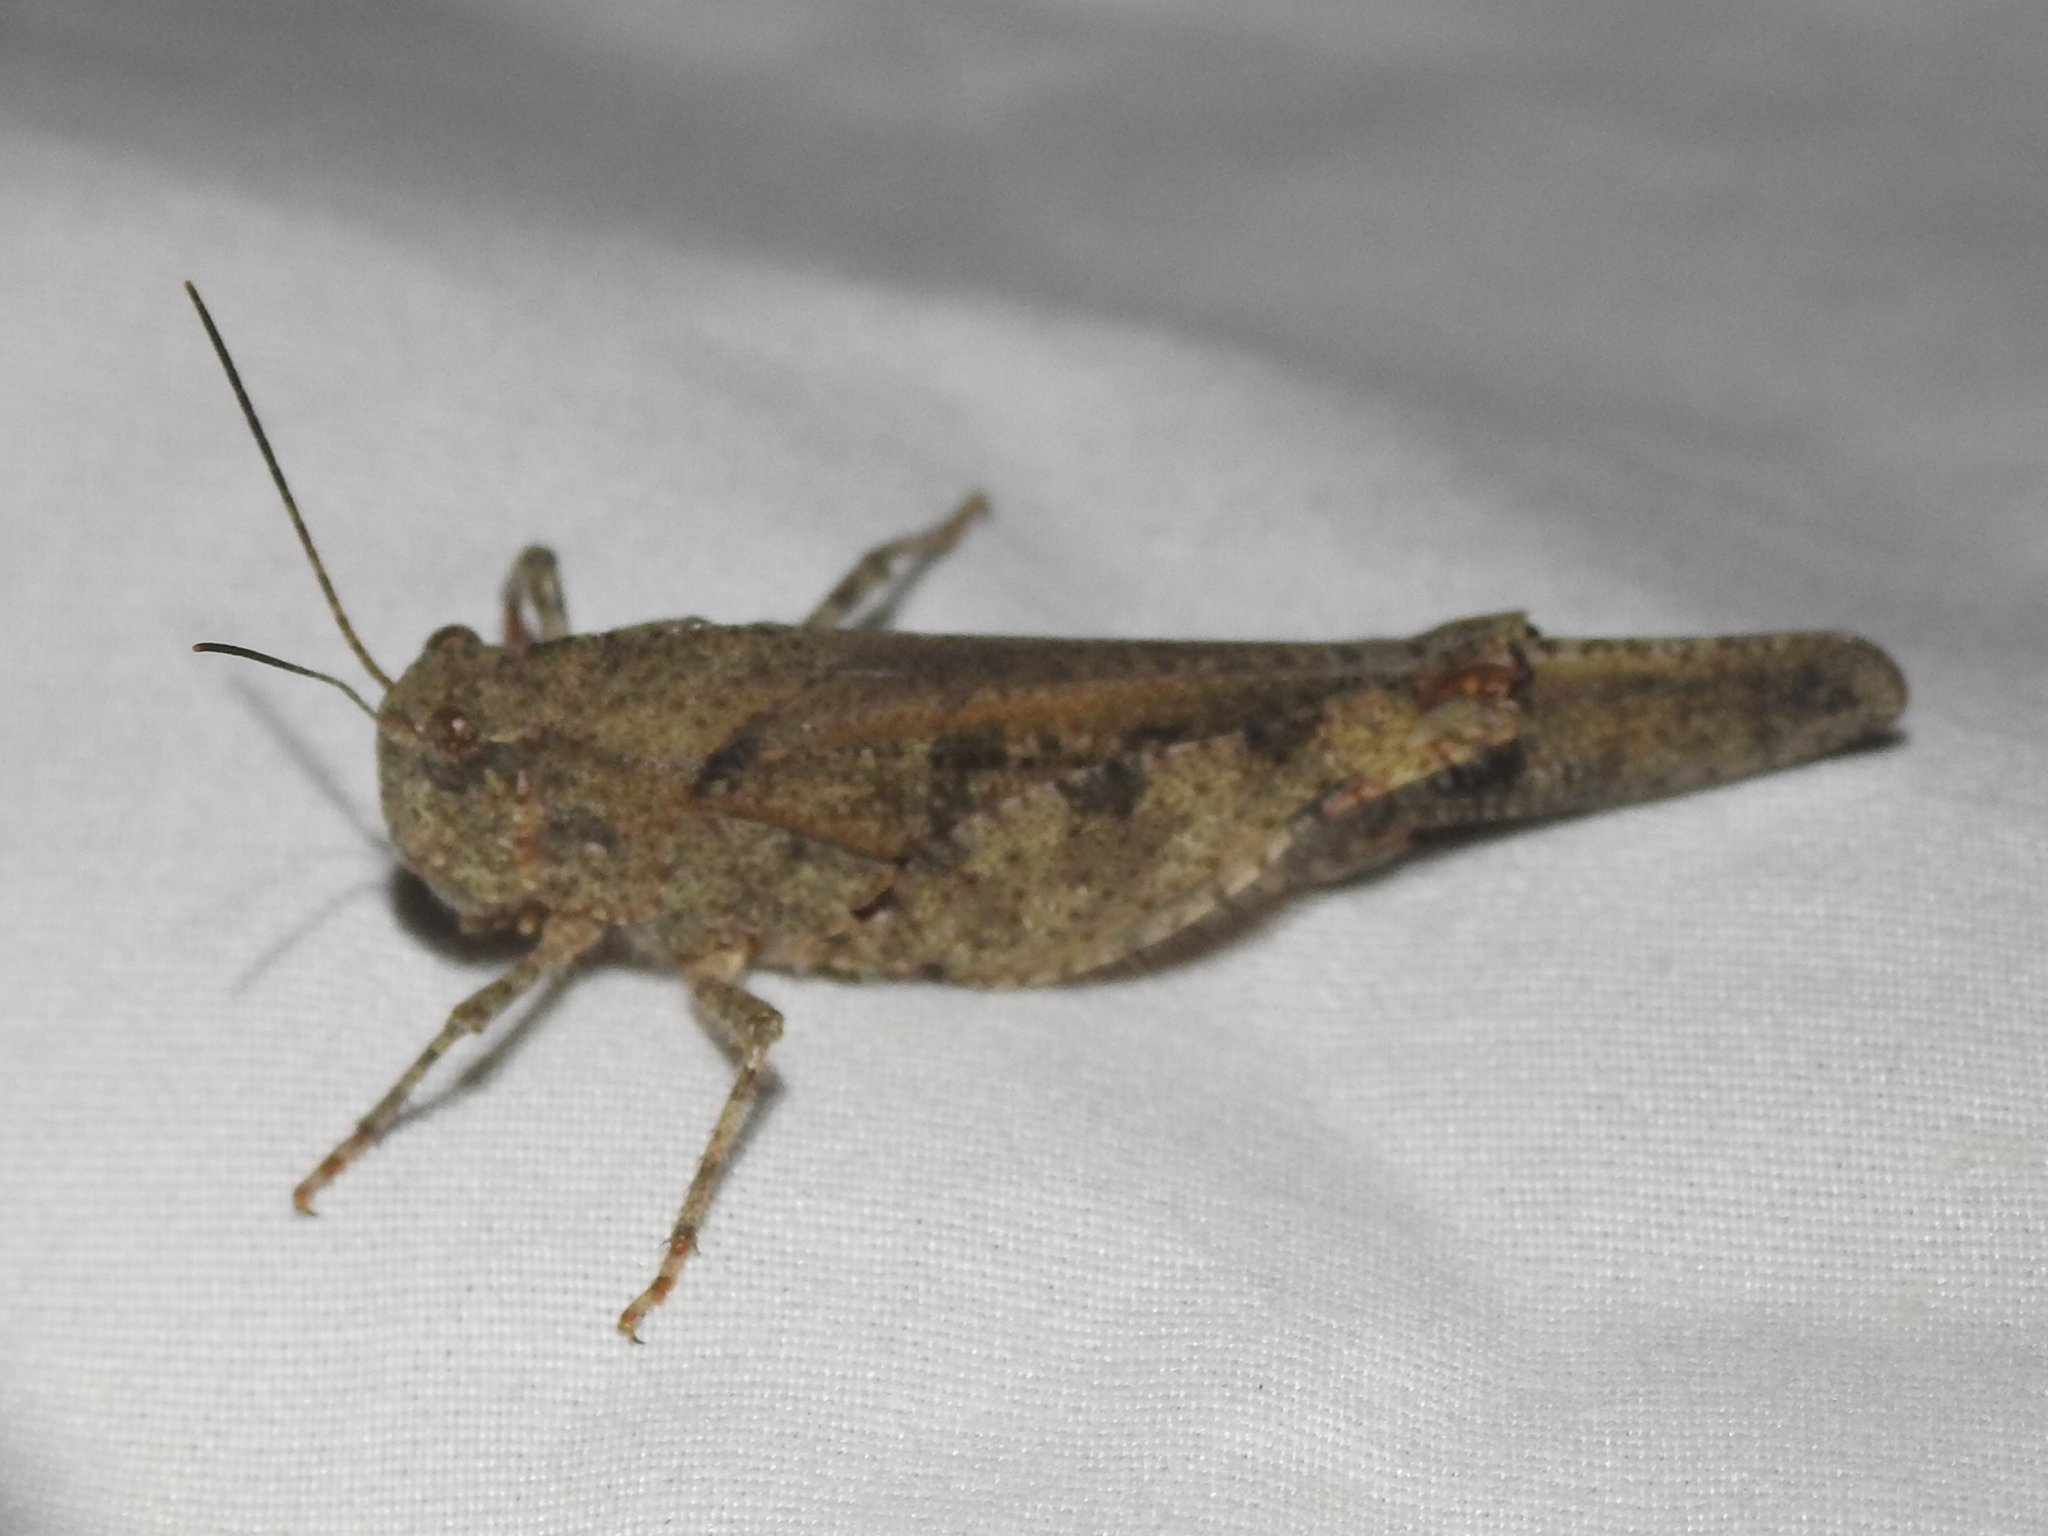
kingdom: Animalia
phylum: Arthropoda
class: Insecta
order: Orthoptera
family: Acrididae
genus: Spharagemon
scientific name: Spharagemon cristatum
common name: Ridgeback sand grasshopper
